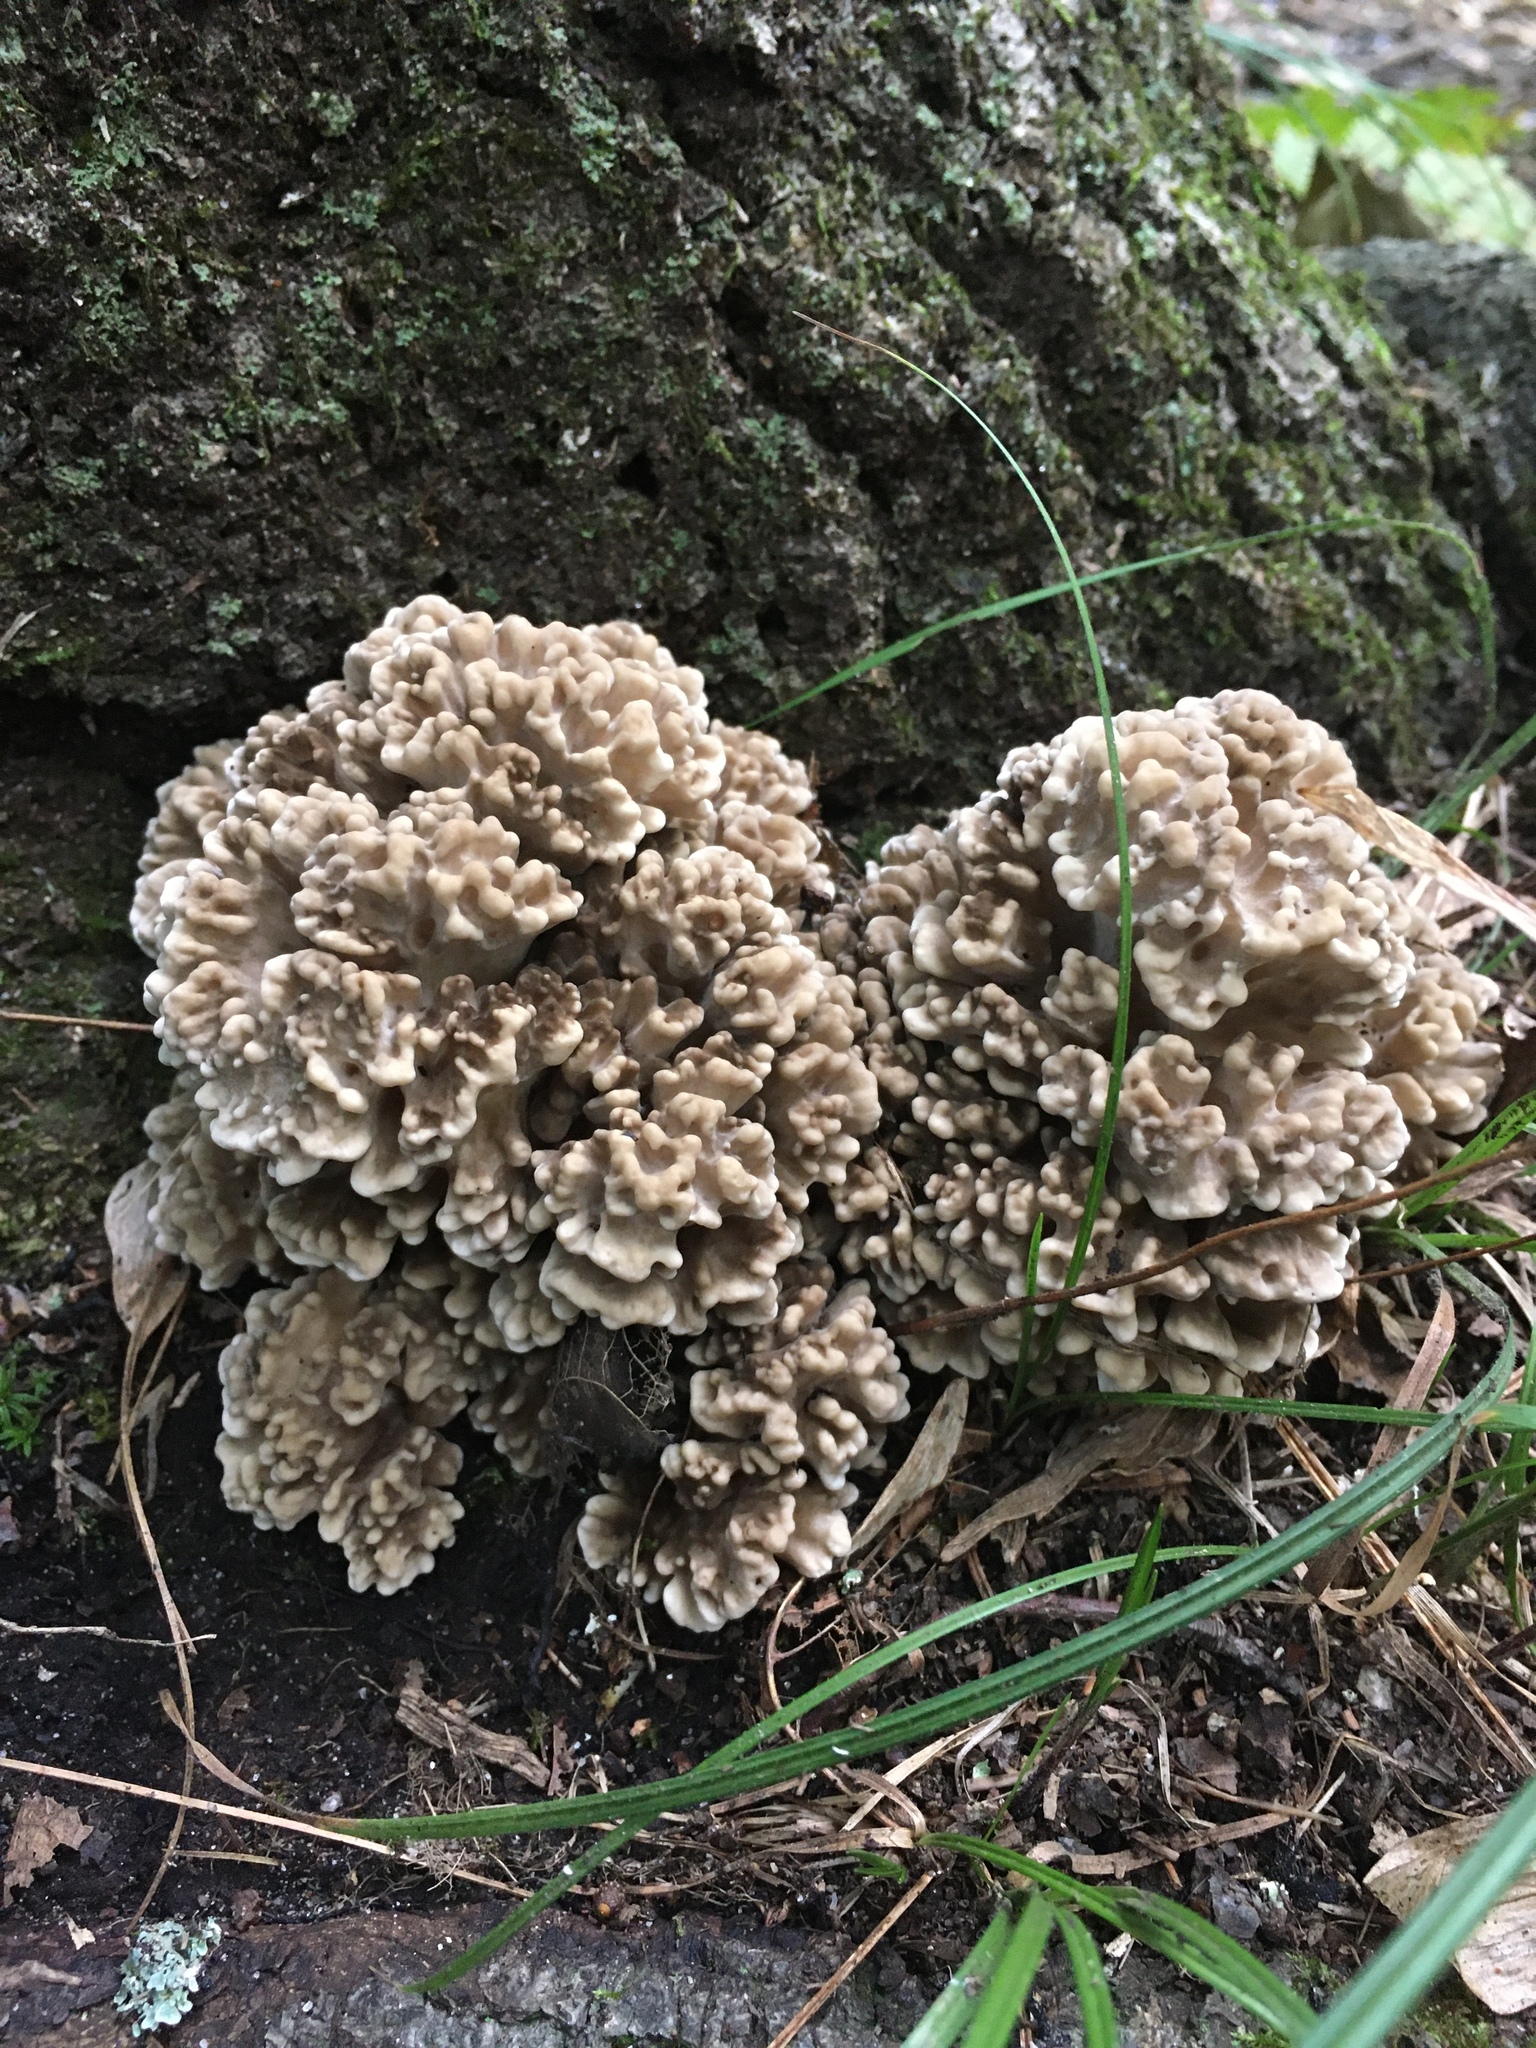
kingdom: Fungi
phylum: Basidiomycota
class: Agaricomycetes
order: Polyporales
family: Grifolaceae
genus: Grifola
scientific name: Grifola frondosa
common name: Hen of the woods
